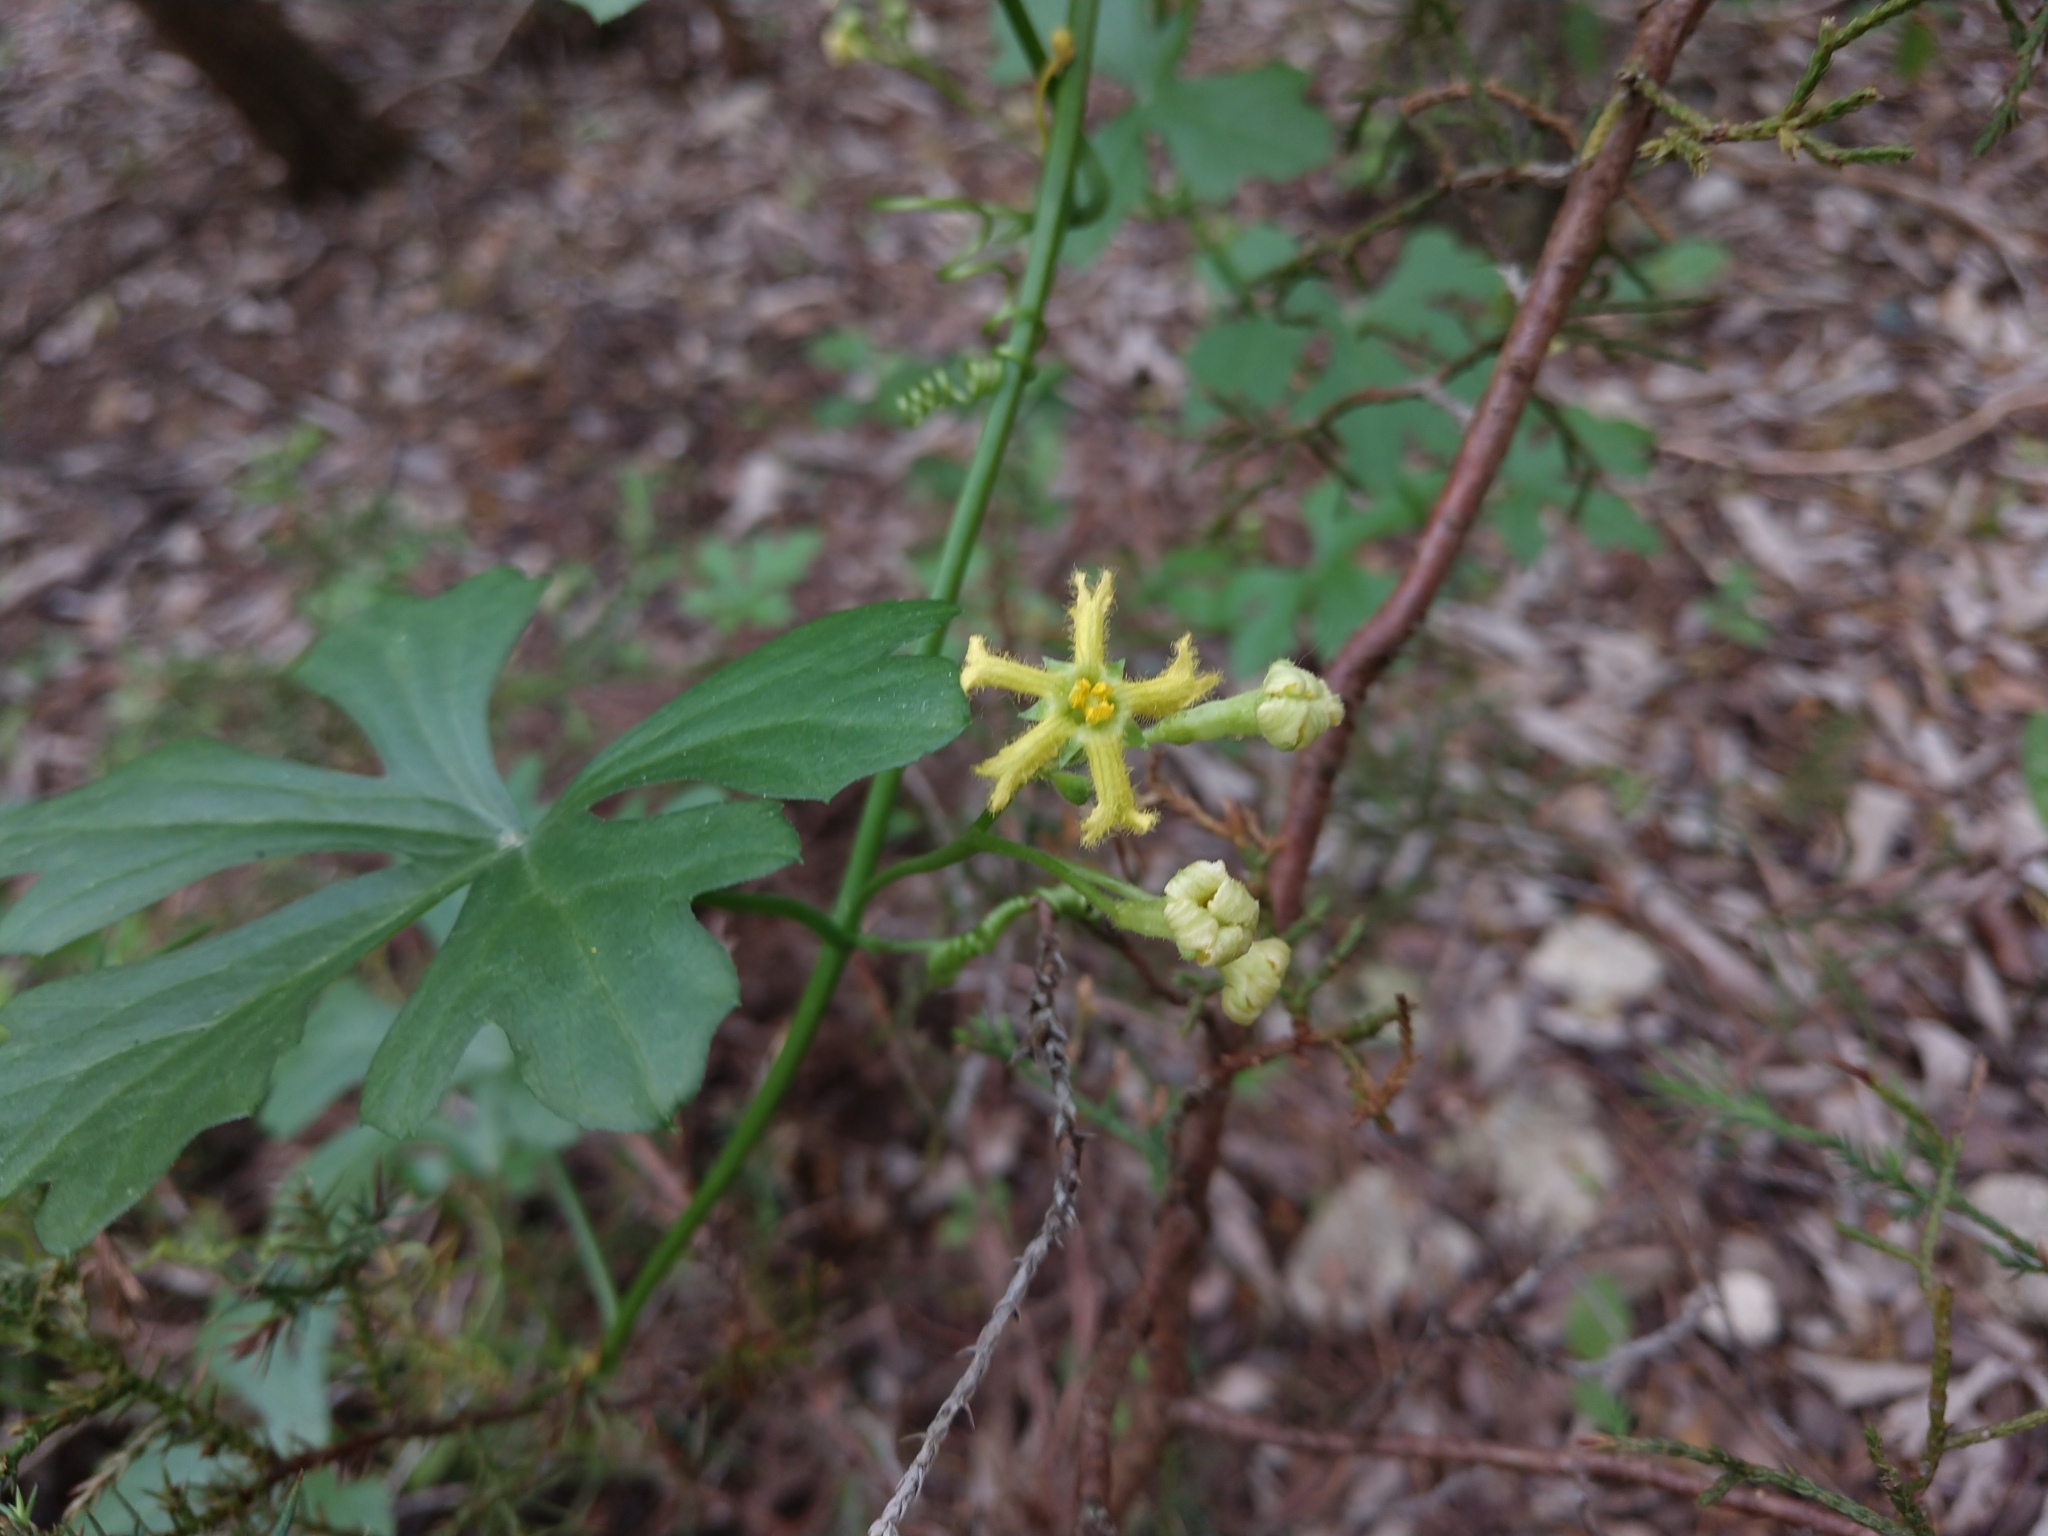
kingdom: Plantae
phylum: Tracheophyta
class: Magnoliopsida
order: Cucurbitales
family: Cucurbitaceae
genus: Ibervillea
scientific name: Ibervillea lindheimeri
